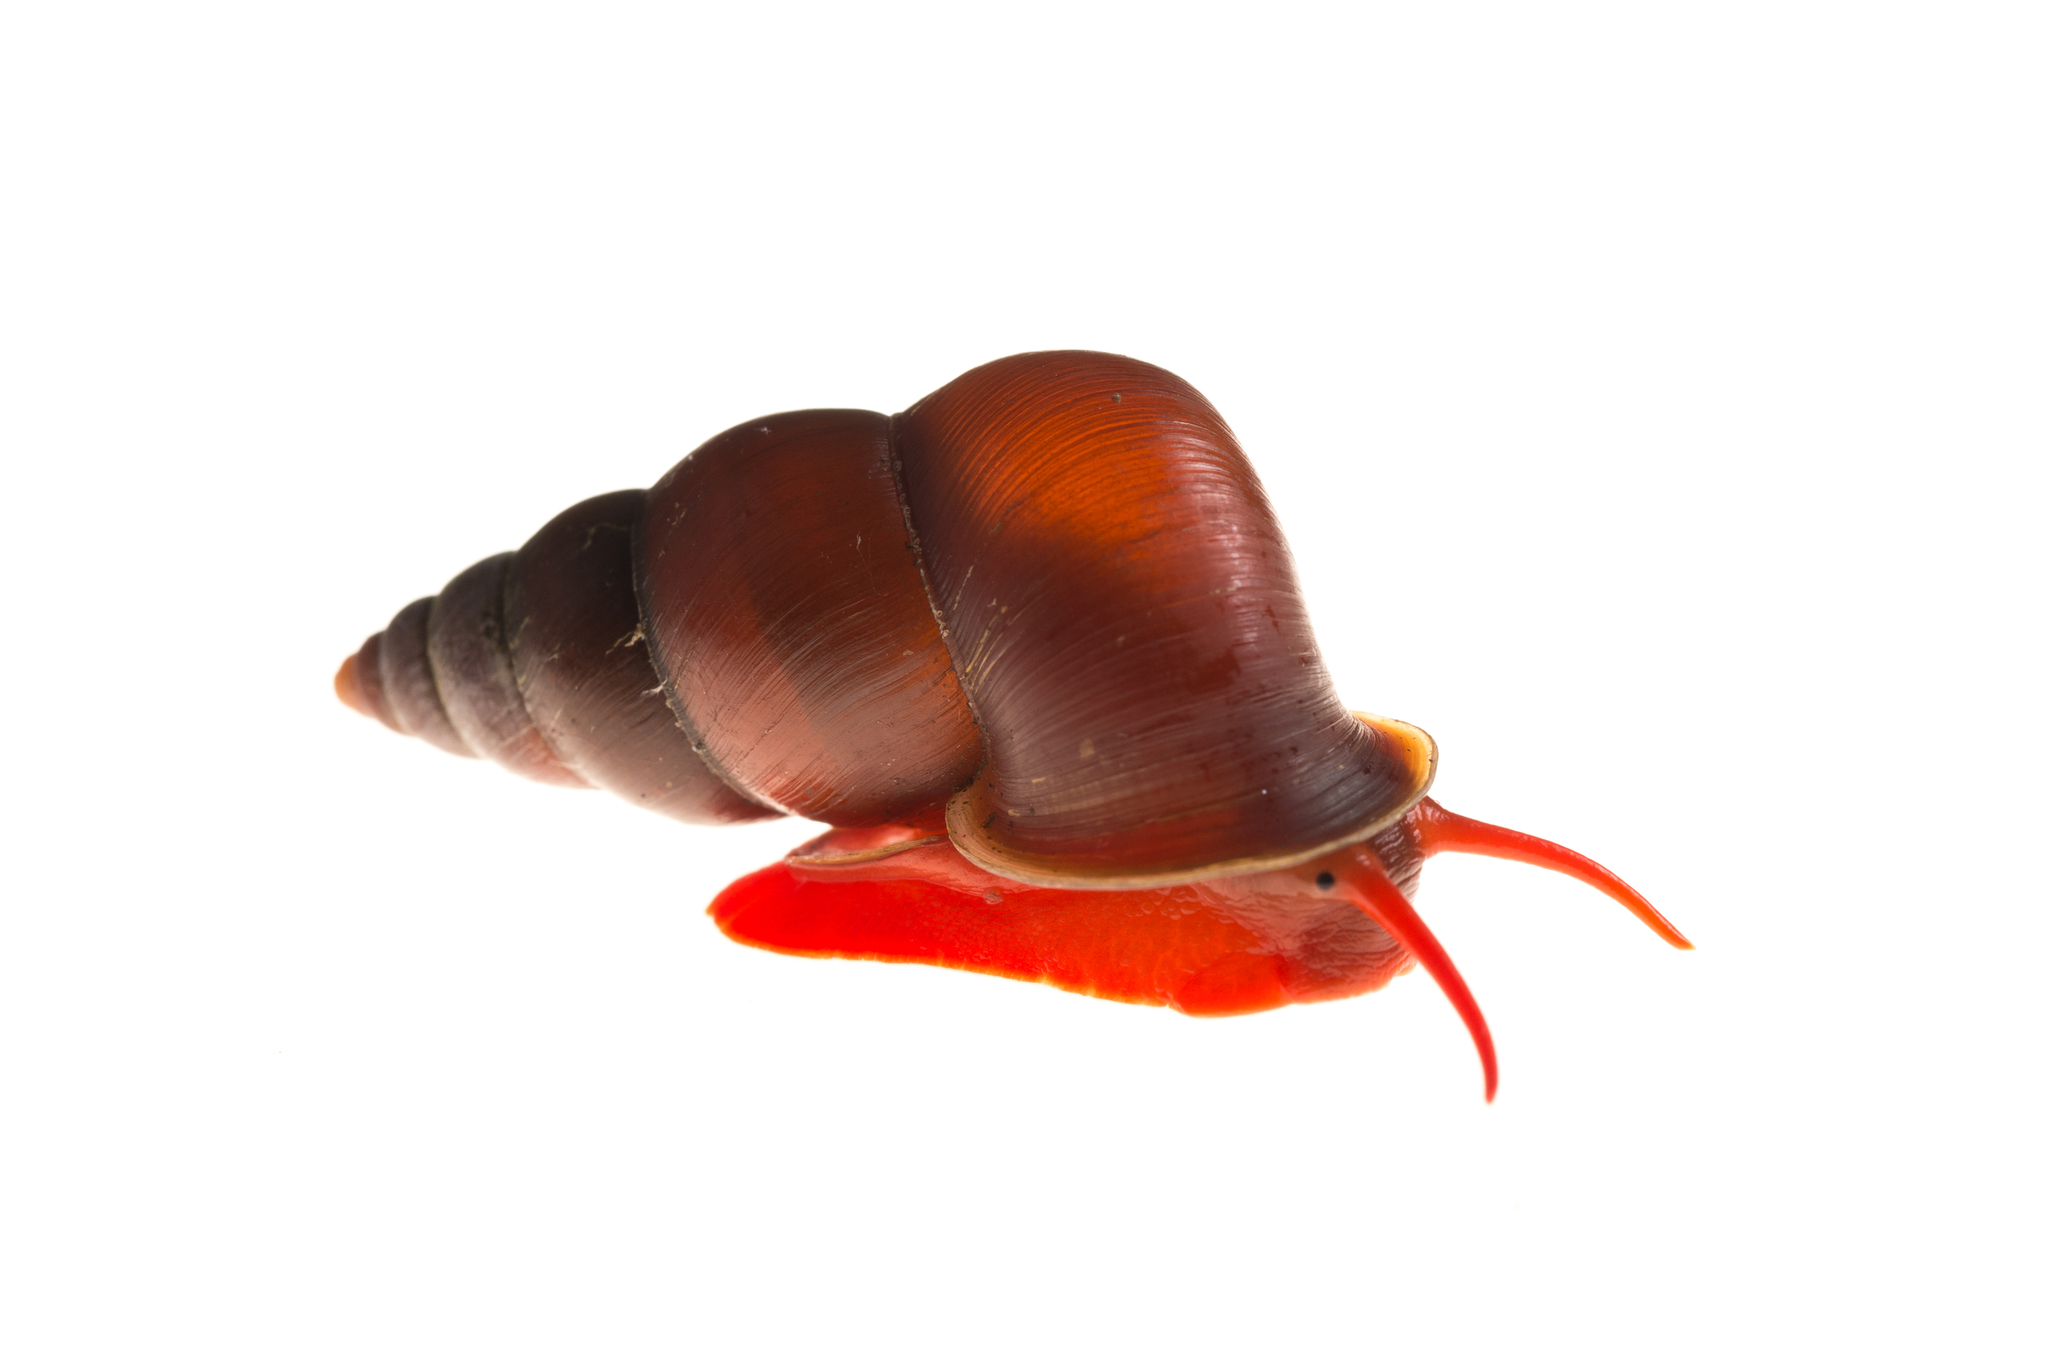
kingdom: Animalia
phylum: Mollusca
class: Gastropoda
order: Architaenioglossa
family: Pupinidae
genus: Coptocheilus
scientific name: Coptocheilus anostomus
